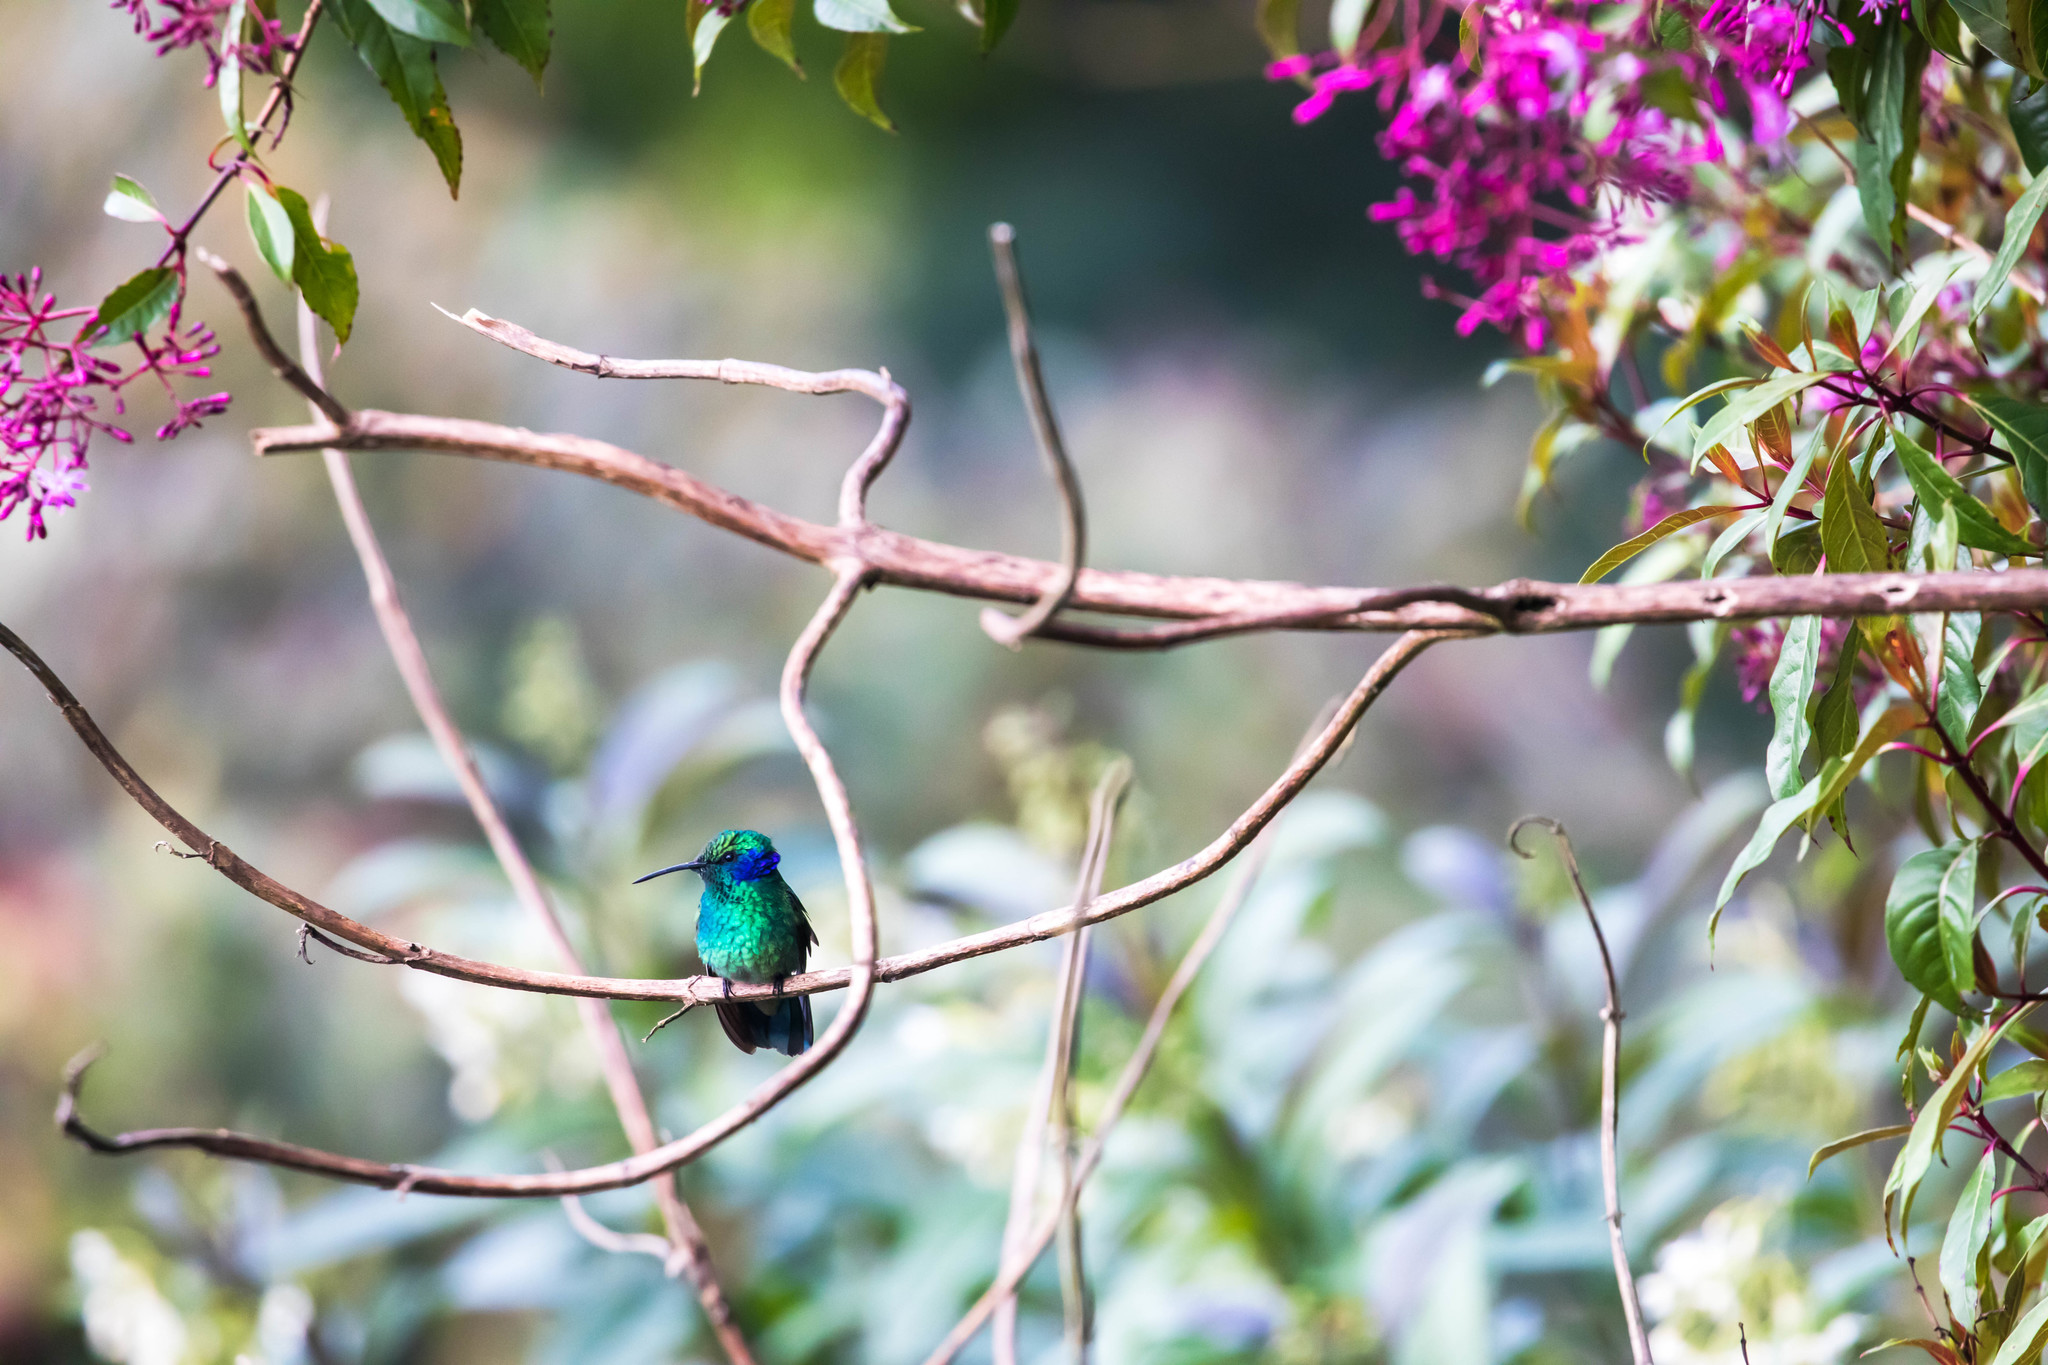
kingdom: Animalia
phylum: Chordata
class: Aves
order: Apodiformes
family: Trochilidae
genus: Colibri
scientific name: Colibri cyanotus
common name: Lesser violetear
